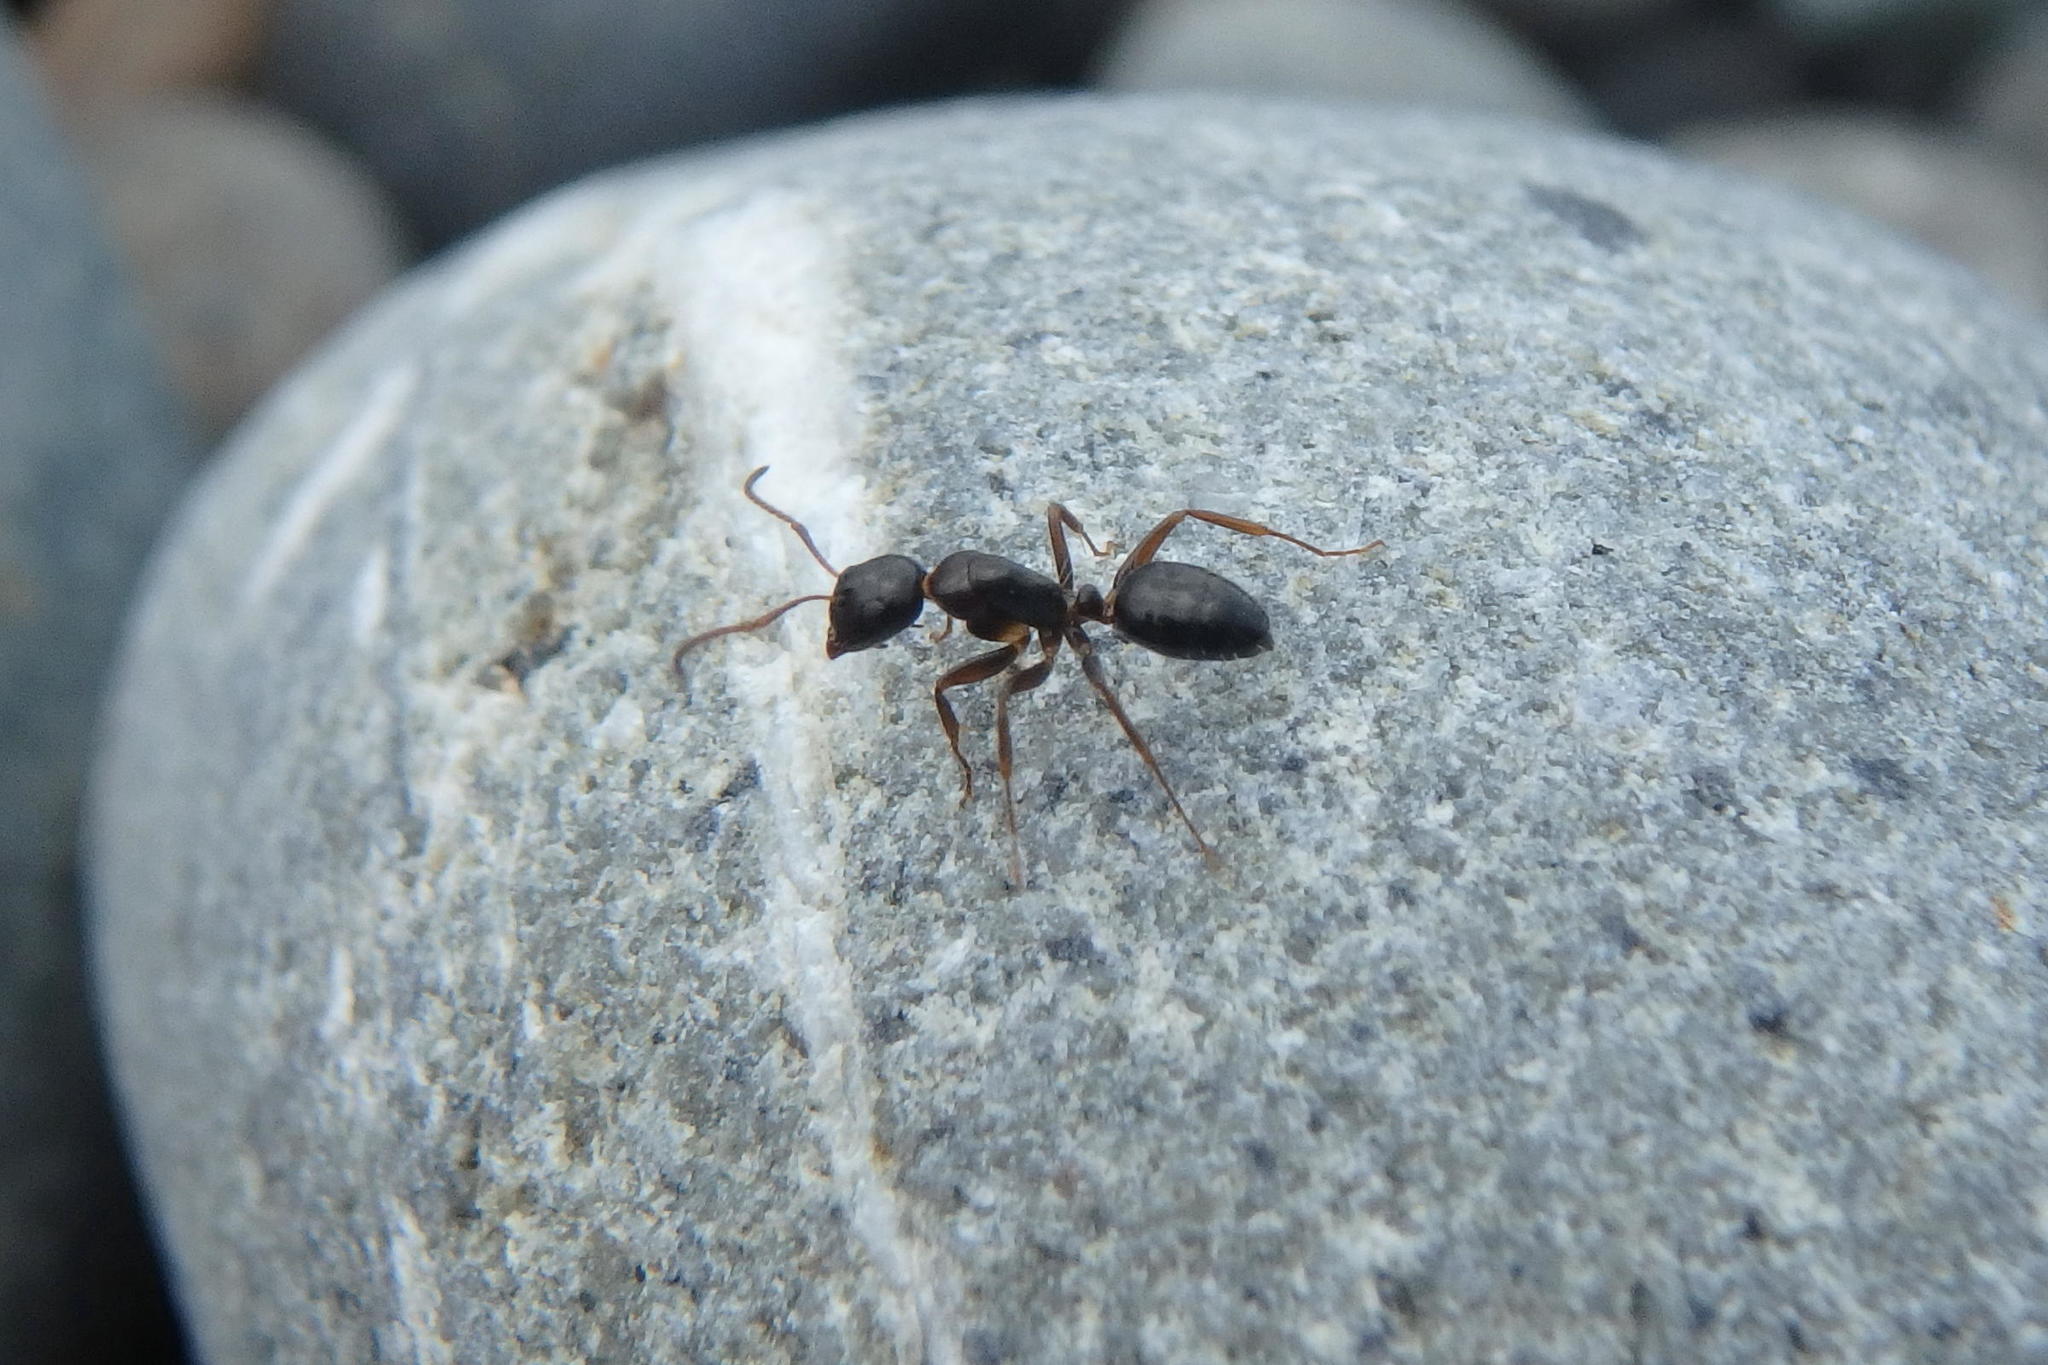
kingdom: Animalia
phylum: Arthropoda
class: Insecta
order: Hymenoptera
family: Formicidae
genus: Camponotus
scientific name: Camponotus vitiosus
